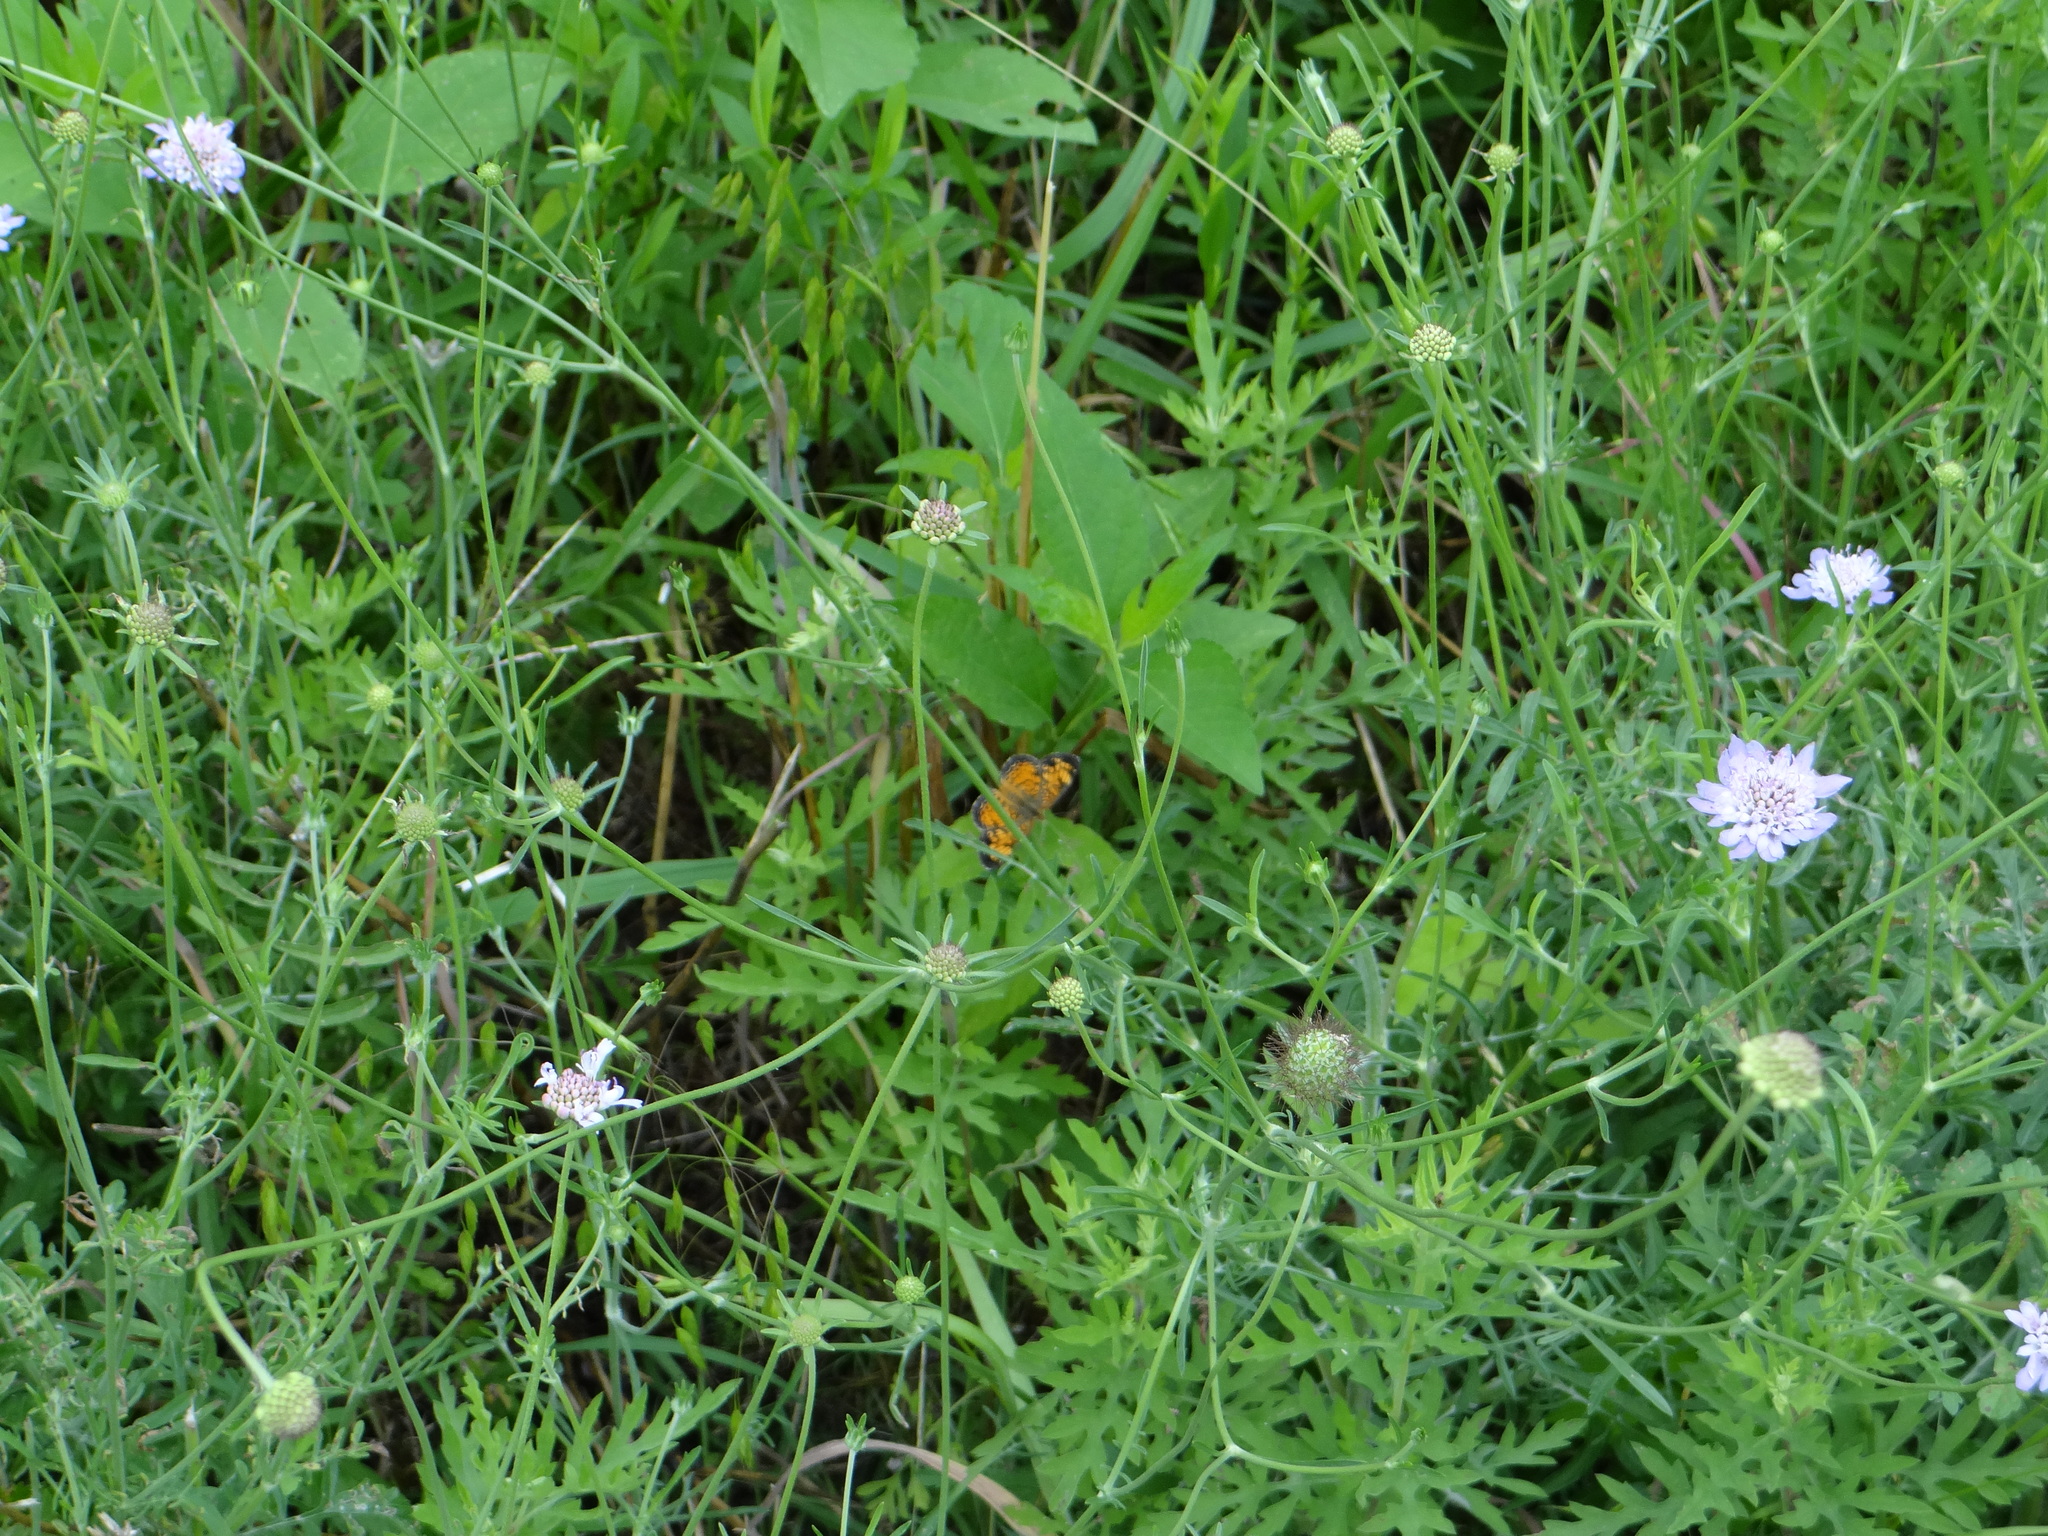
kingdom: Animalia
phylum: Arthropoda
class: Insecta
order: Lepidoptera
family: Nymphalidae
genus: Phyciodes
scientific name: Phyciodes tharos
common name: Pearl crescent
